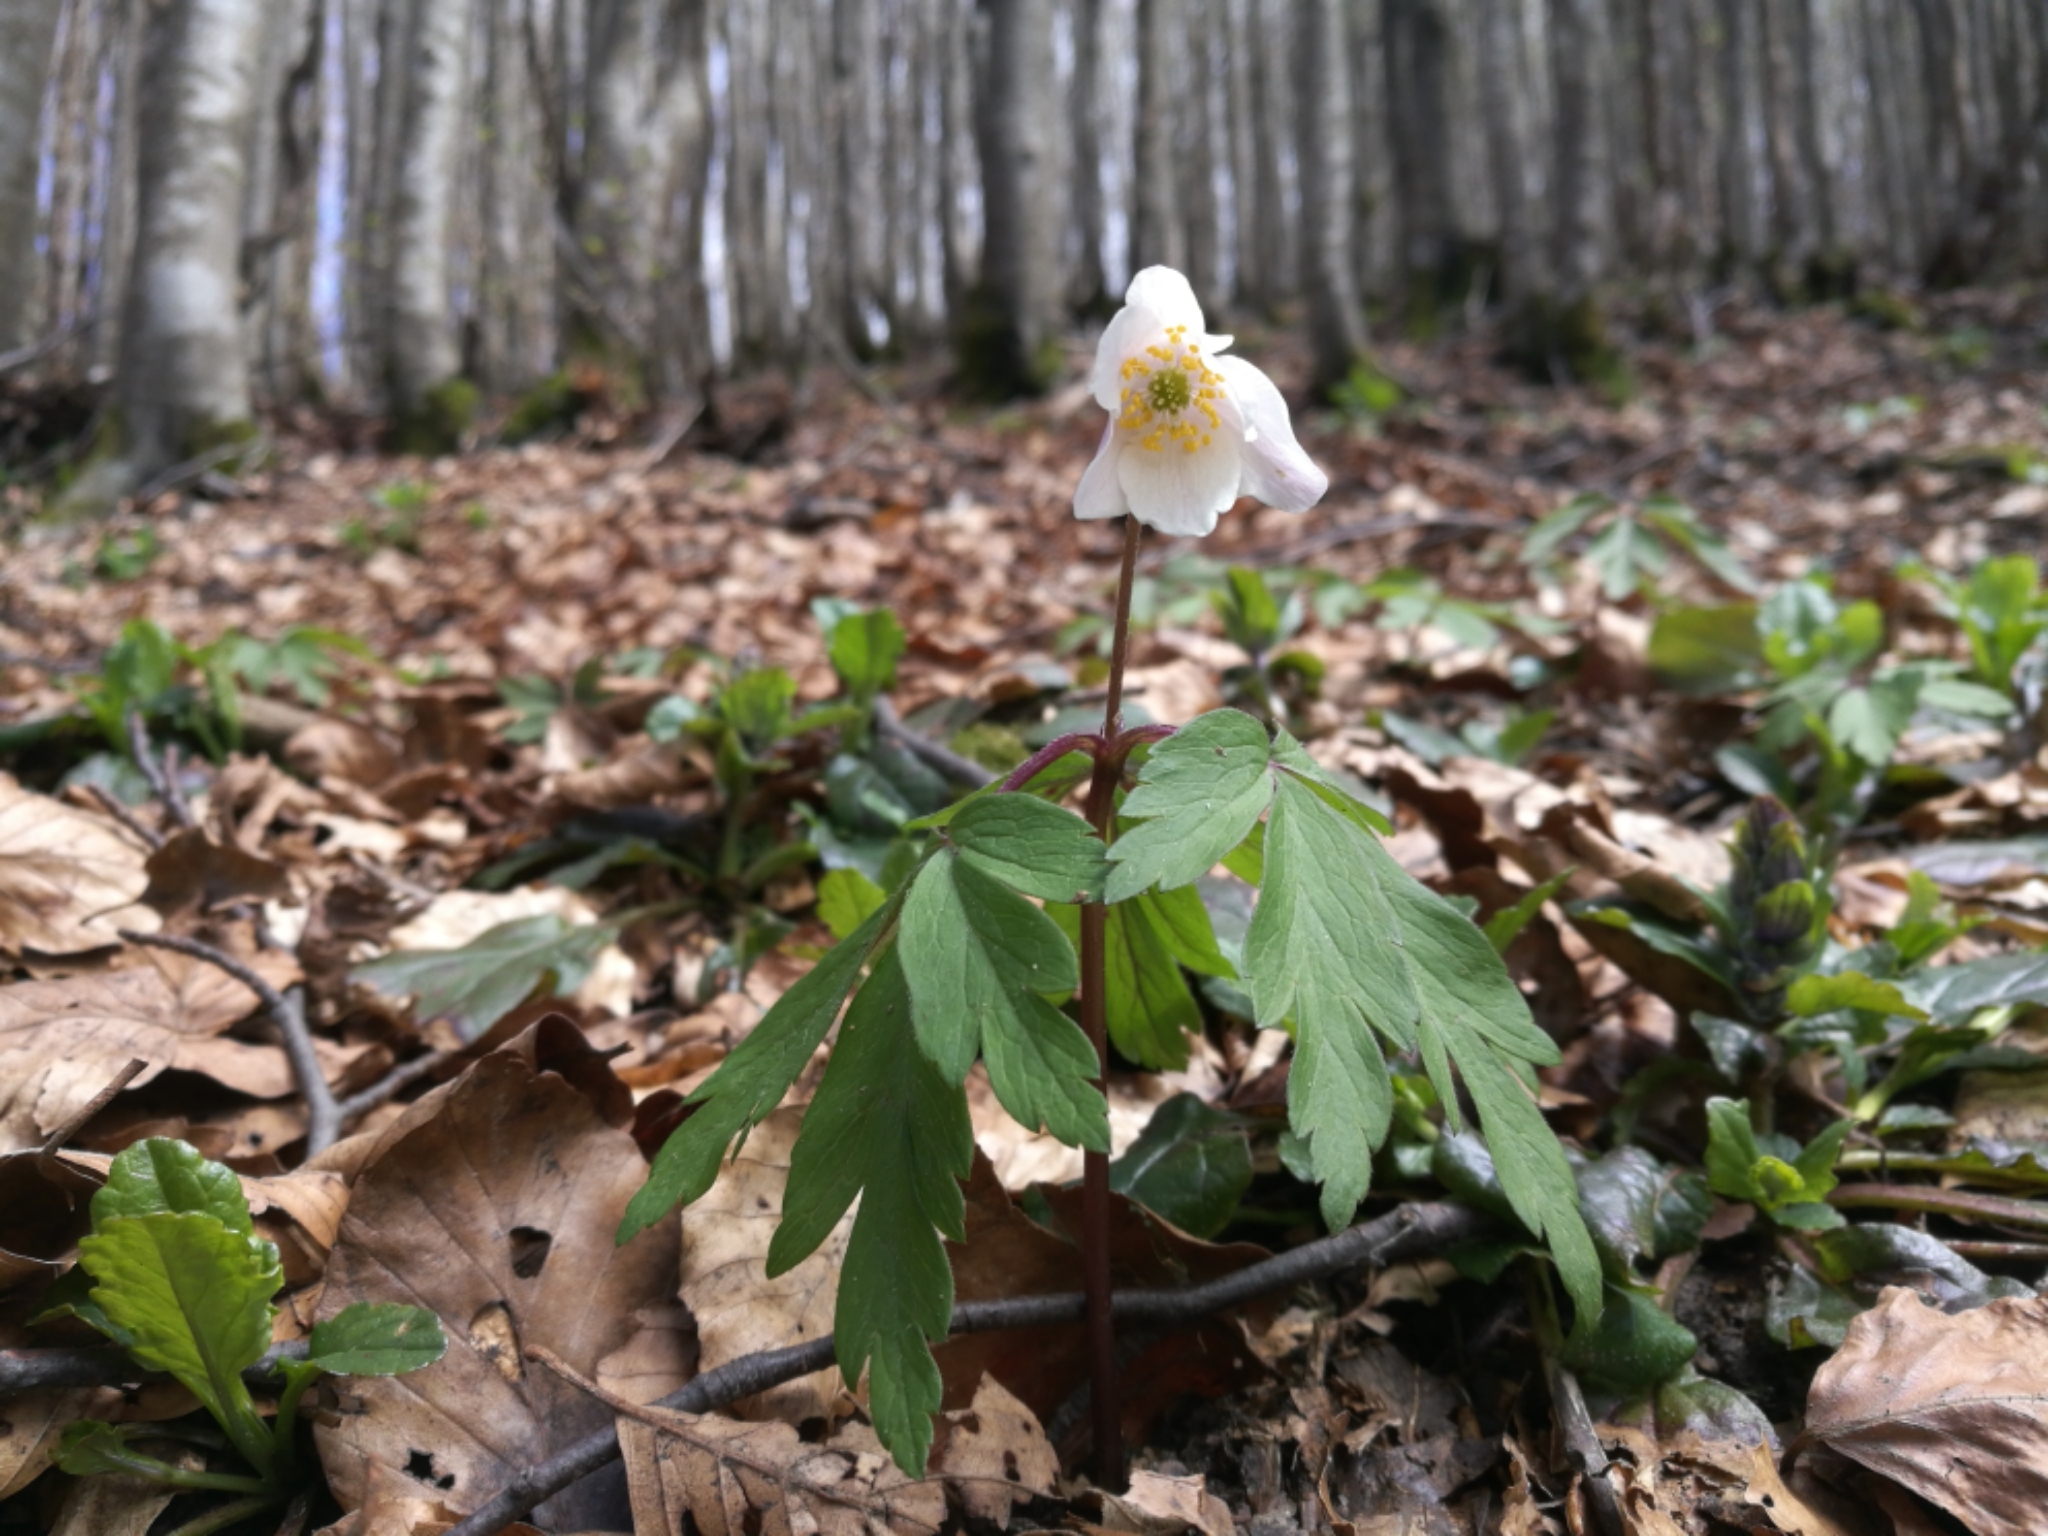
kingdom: Plantae
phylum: Tracheophyta
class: Magnoliopsida
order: Ranunculales
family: Ranunculaceae
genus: Anemone
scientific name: Anemone nemorosa
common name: Wood anemone
